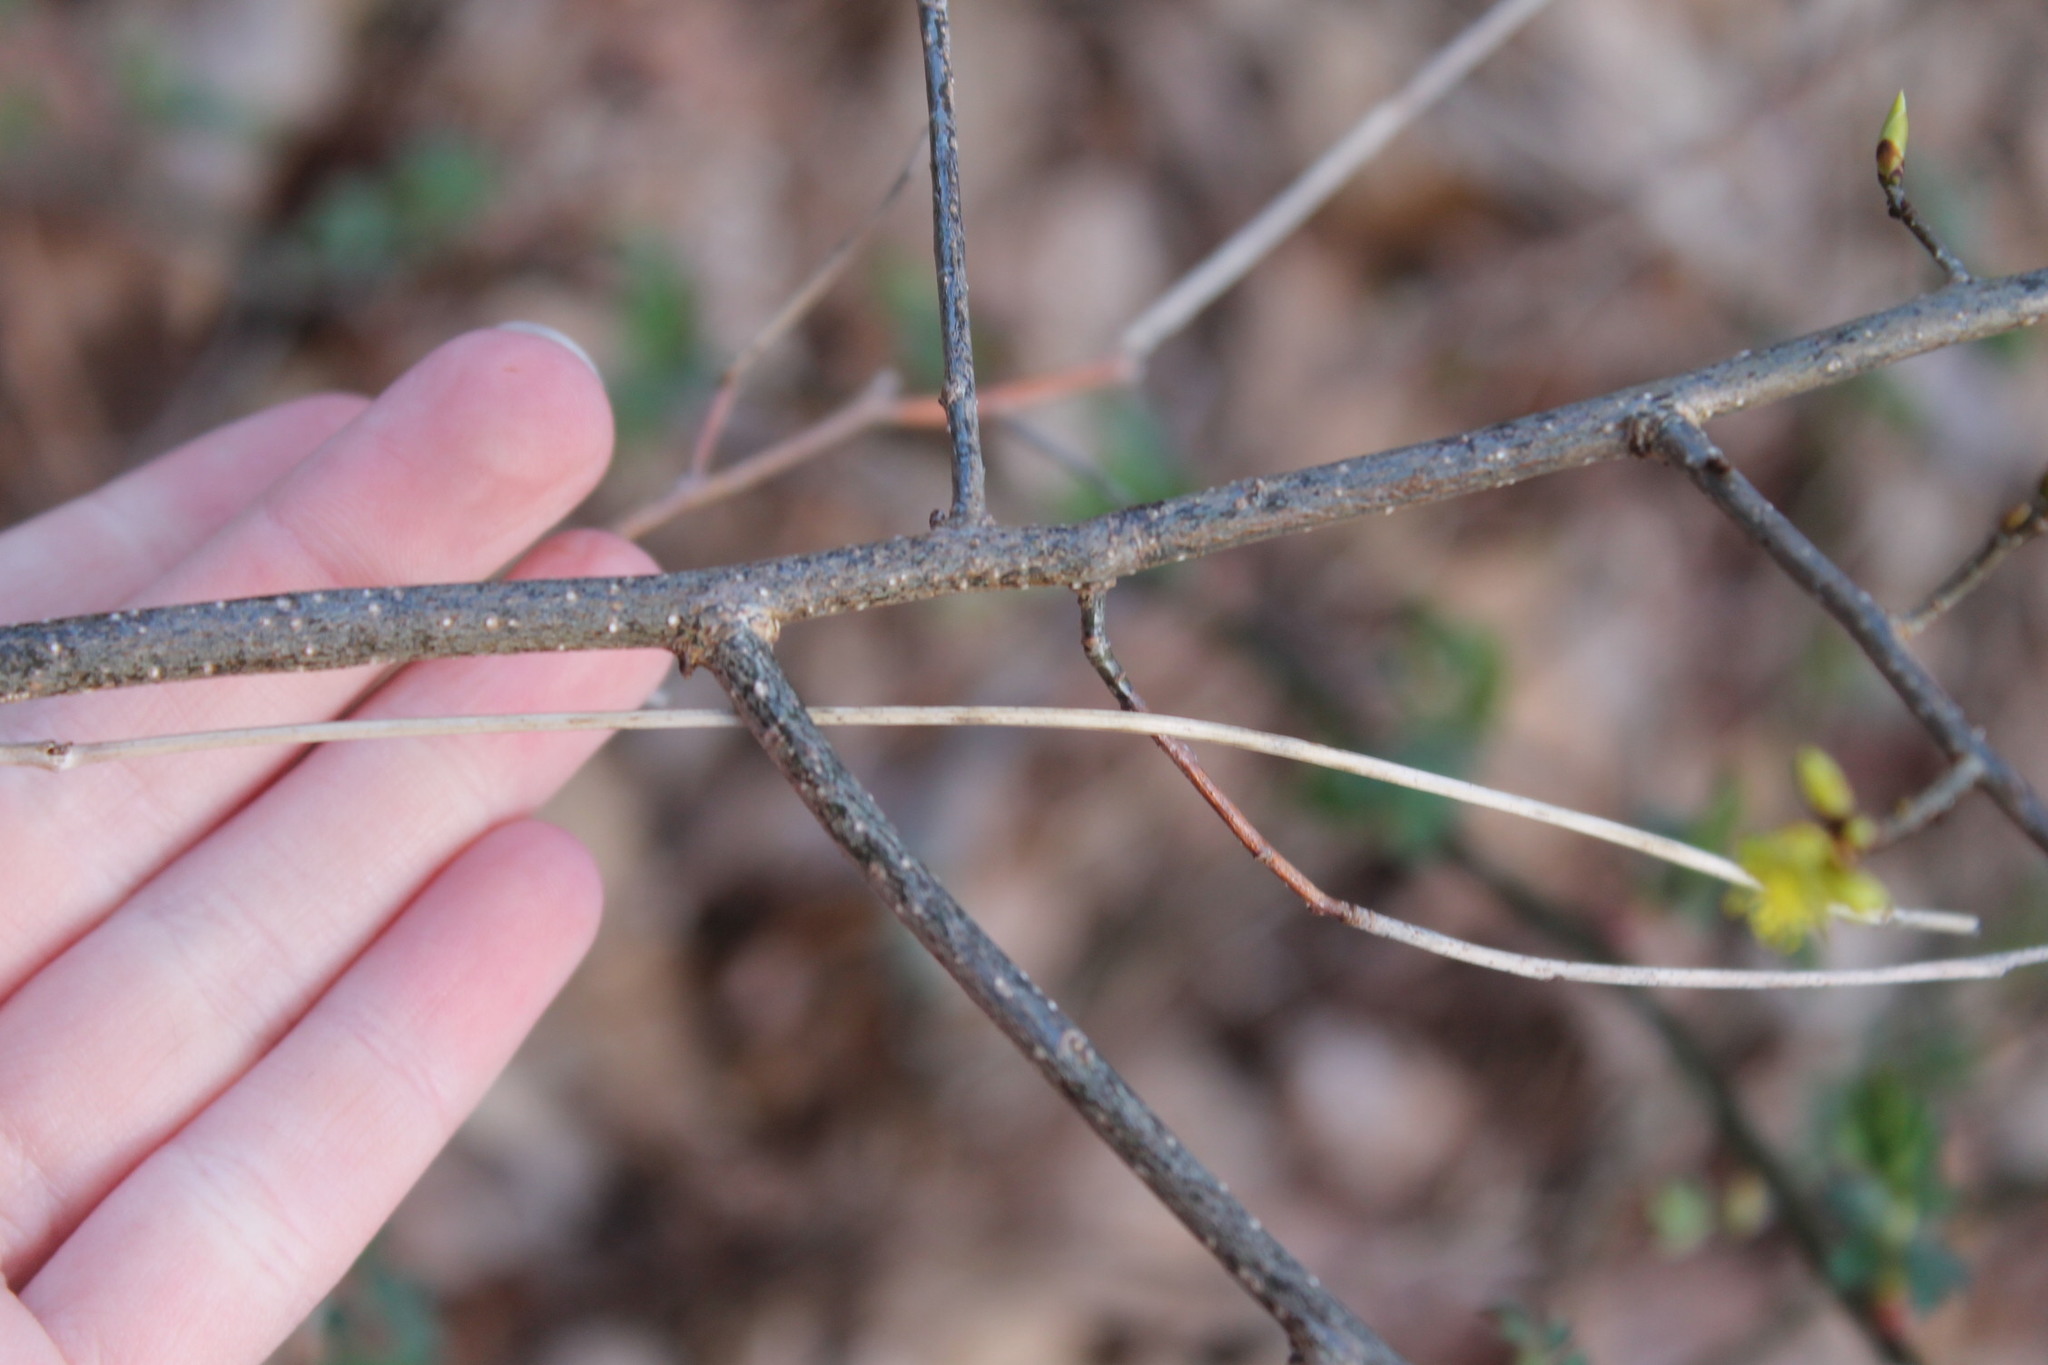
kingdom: Plantae
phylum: Tracheophyta
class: Magnoliopsida
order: Laurales
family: Lauraceae
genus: Lindera
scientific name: Lindera benzoin
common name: Spicebush
